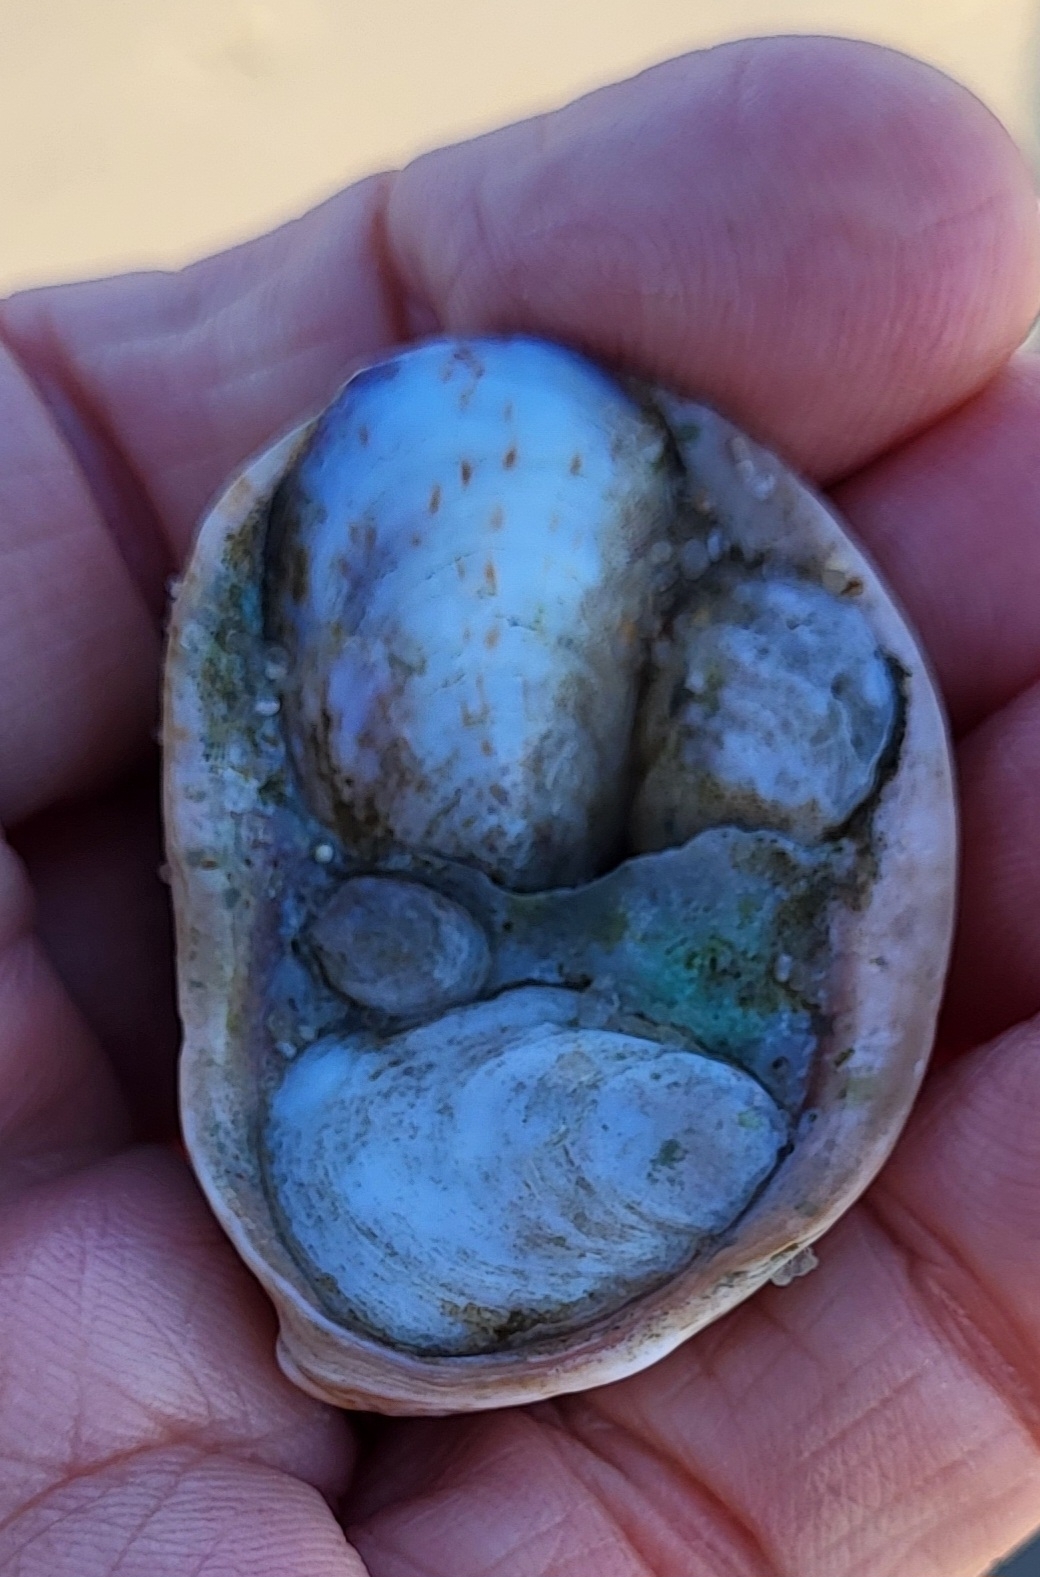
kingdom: Animalia
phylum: Mollusca
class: Gastropoda
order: Littorinimorpha
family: Calyptraeidae
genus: Crepidula
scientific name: Crepidula fornicata
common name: Slipper limpet
